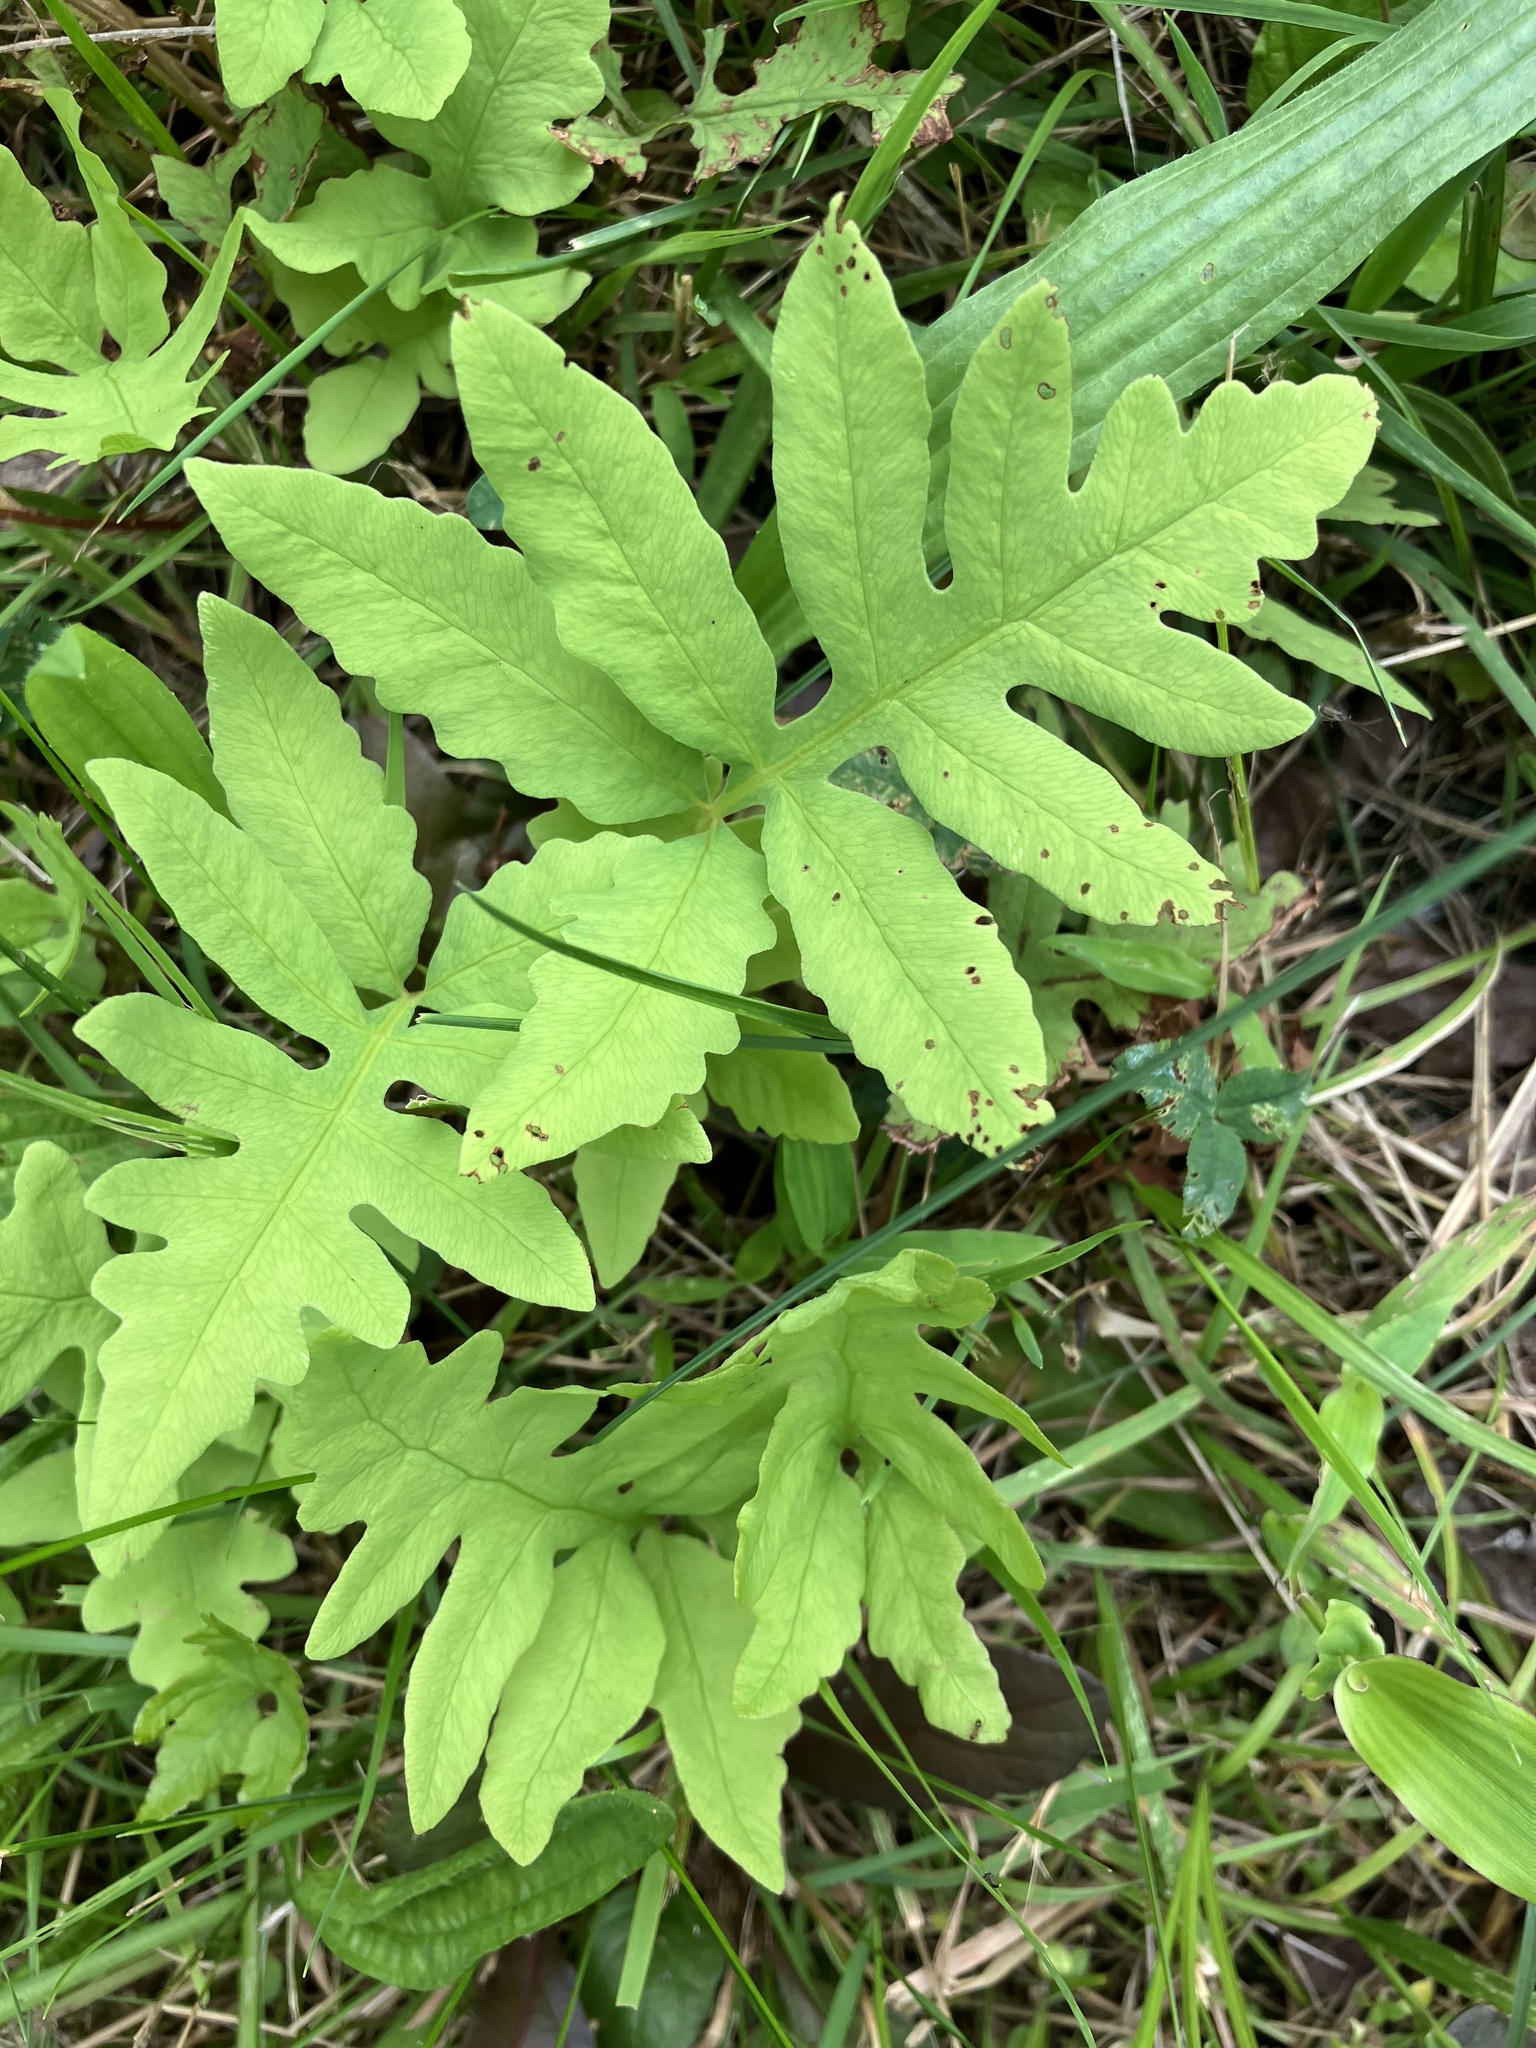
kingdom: Plantae
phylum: Tracheophyta
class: Polypodiopsida
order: Polypodiales
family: Onocleaceae
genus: Onoclea
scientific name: Onoclea sensibilis
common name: Sensitive fern
